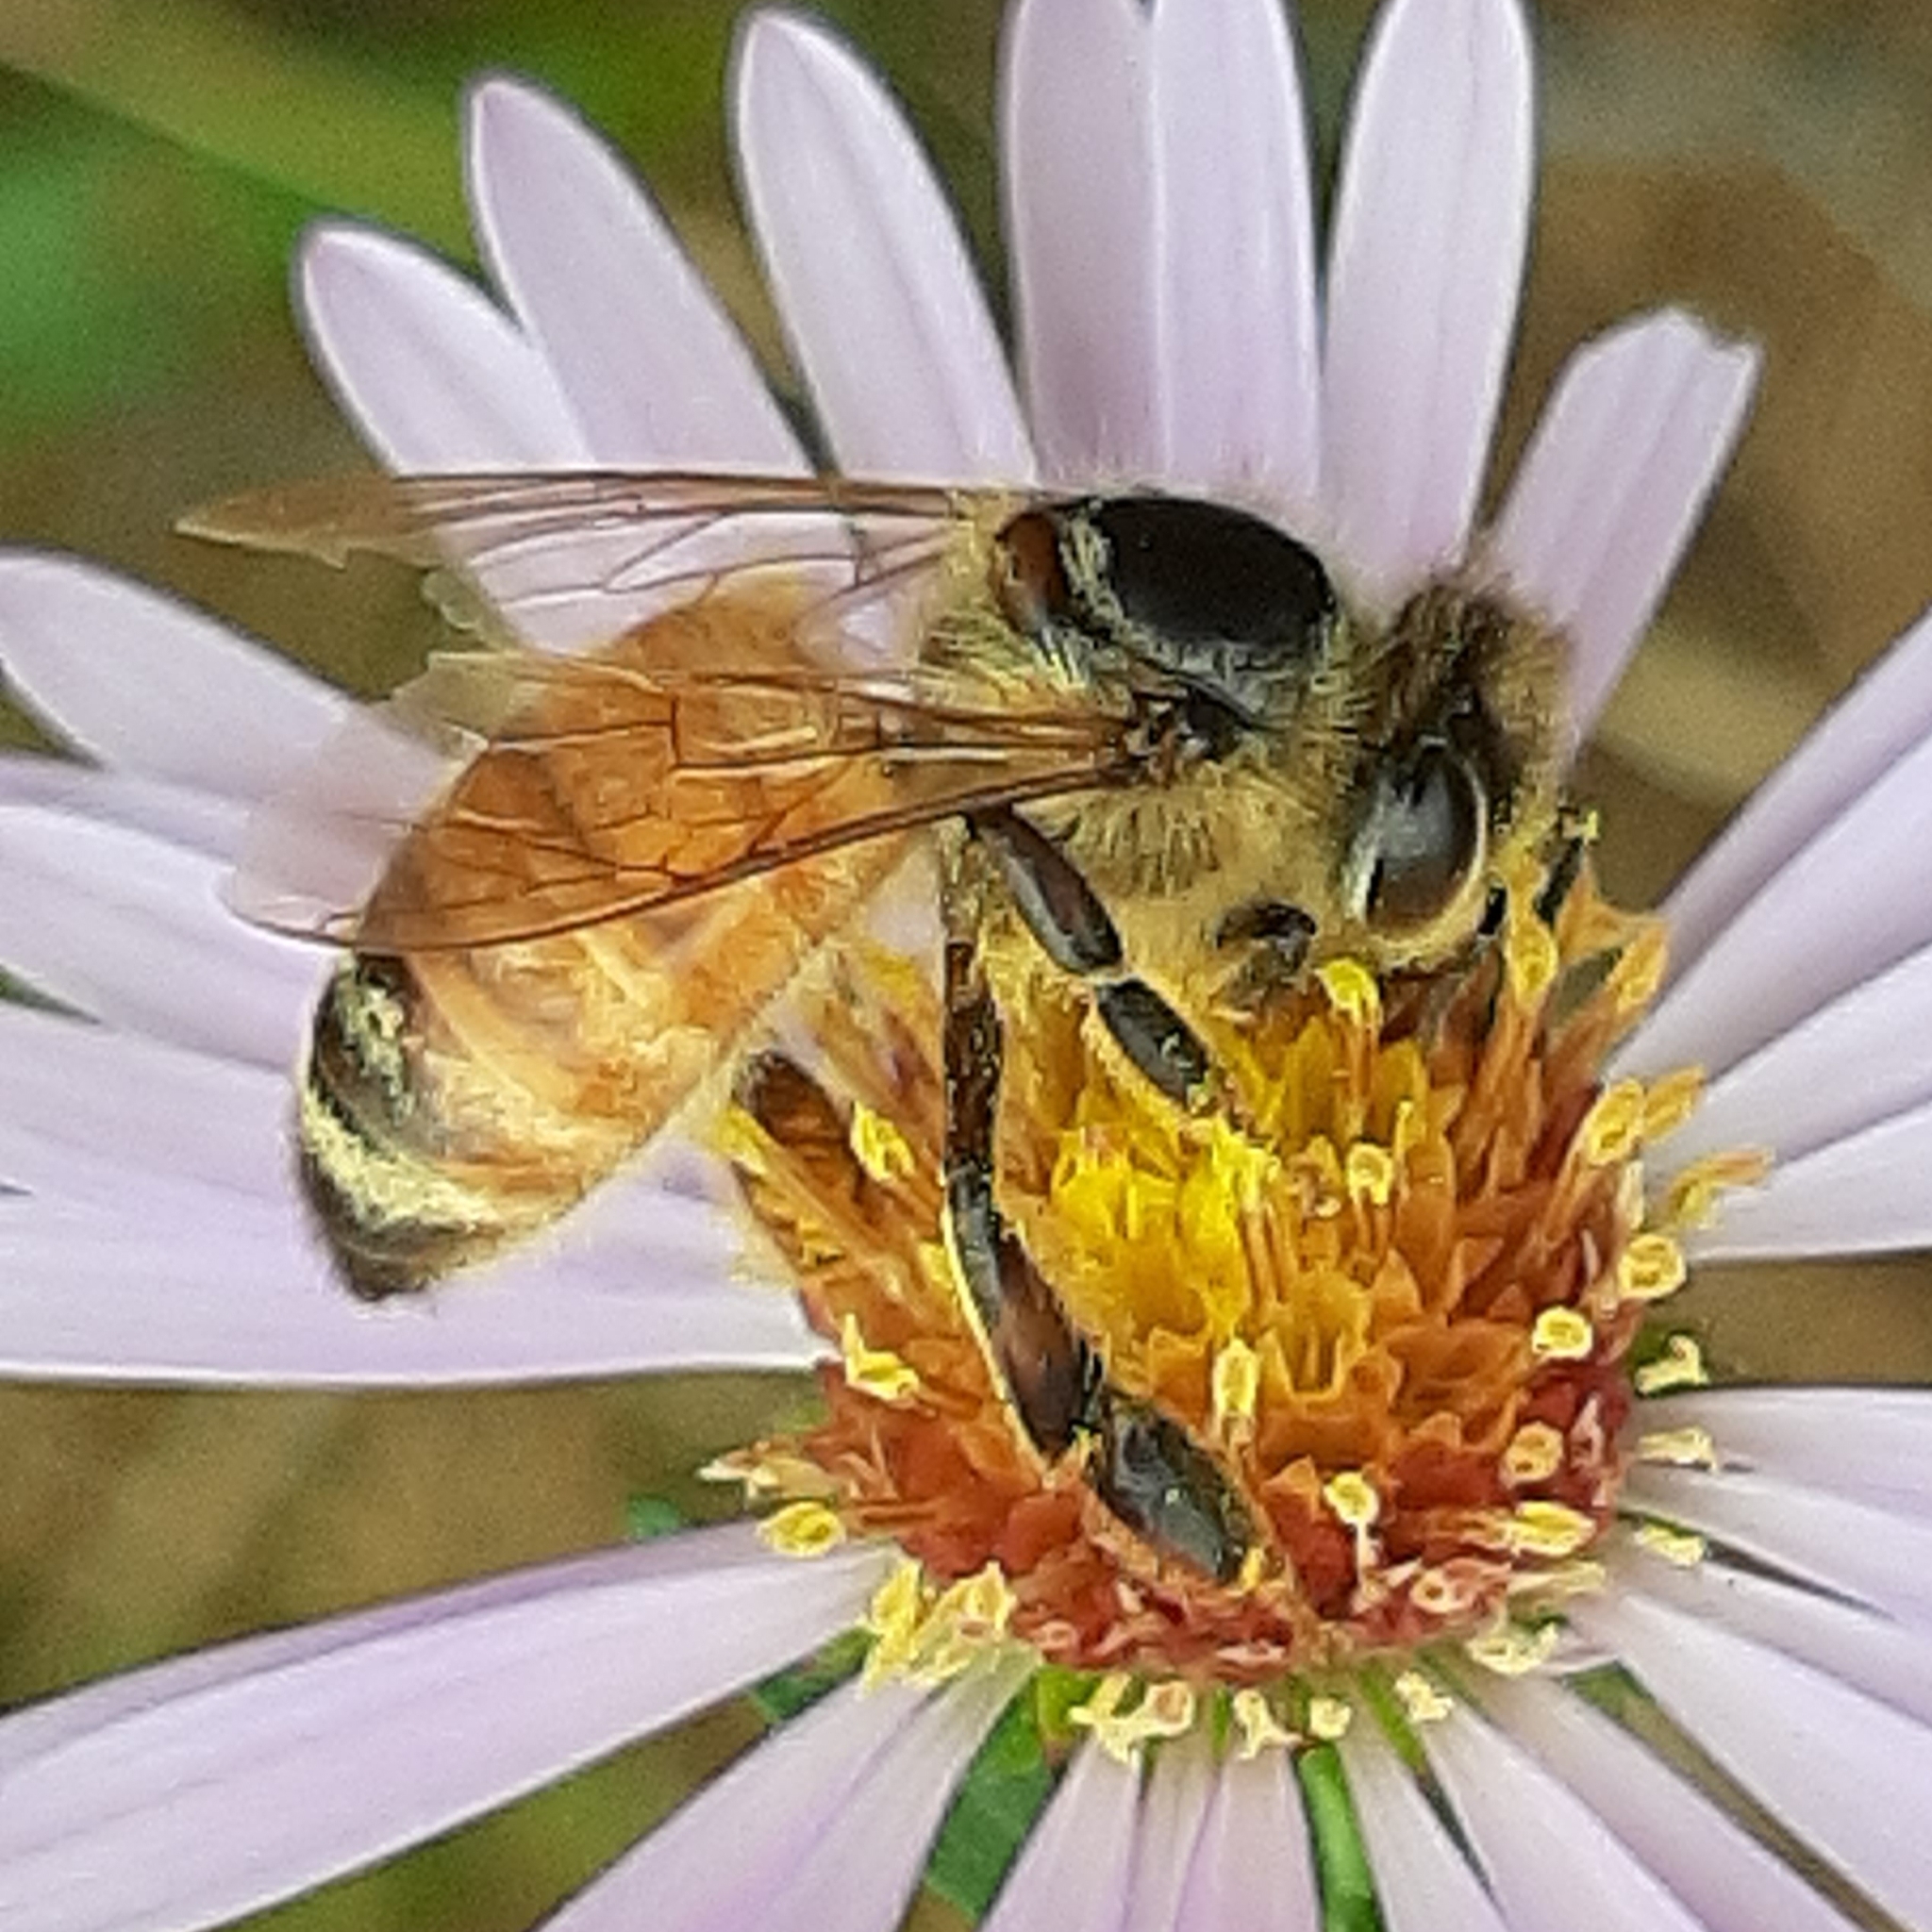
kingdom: Animalia
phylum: Arthropoda
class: Insecta
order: Hymenoptera
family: Apidae
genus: Apis
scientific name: Apis mellifera
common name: Honey bee
